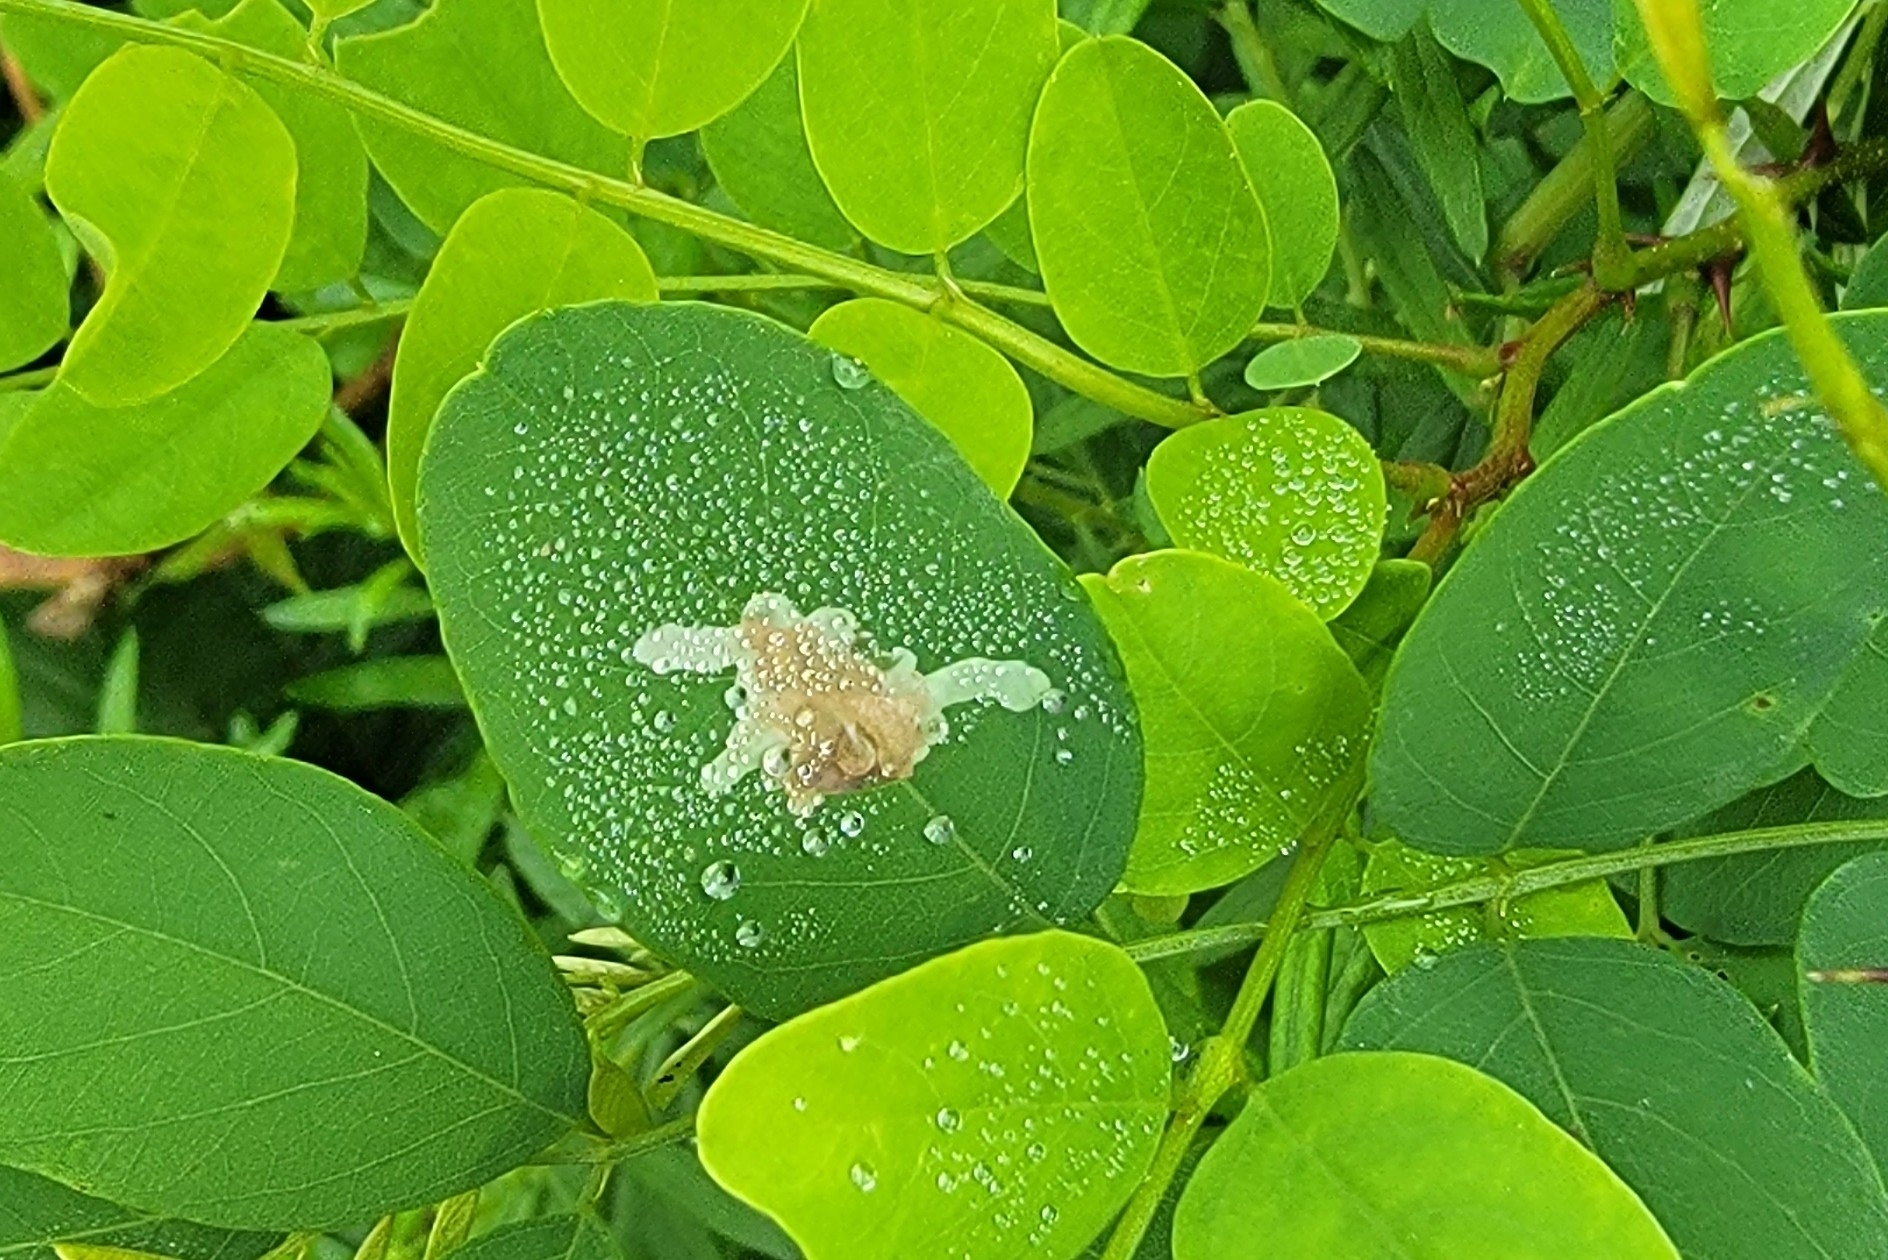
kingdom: Animalia
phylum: Arthropoda
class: Insecta
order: Lepidoptera
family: Gracillariidae
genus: Parectopa
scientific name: Parectopa robiniella
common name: Locust digitate leafminer
